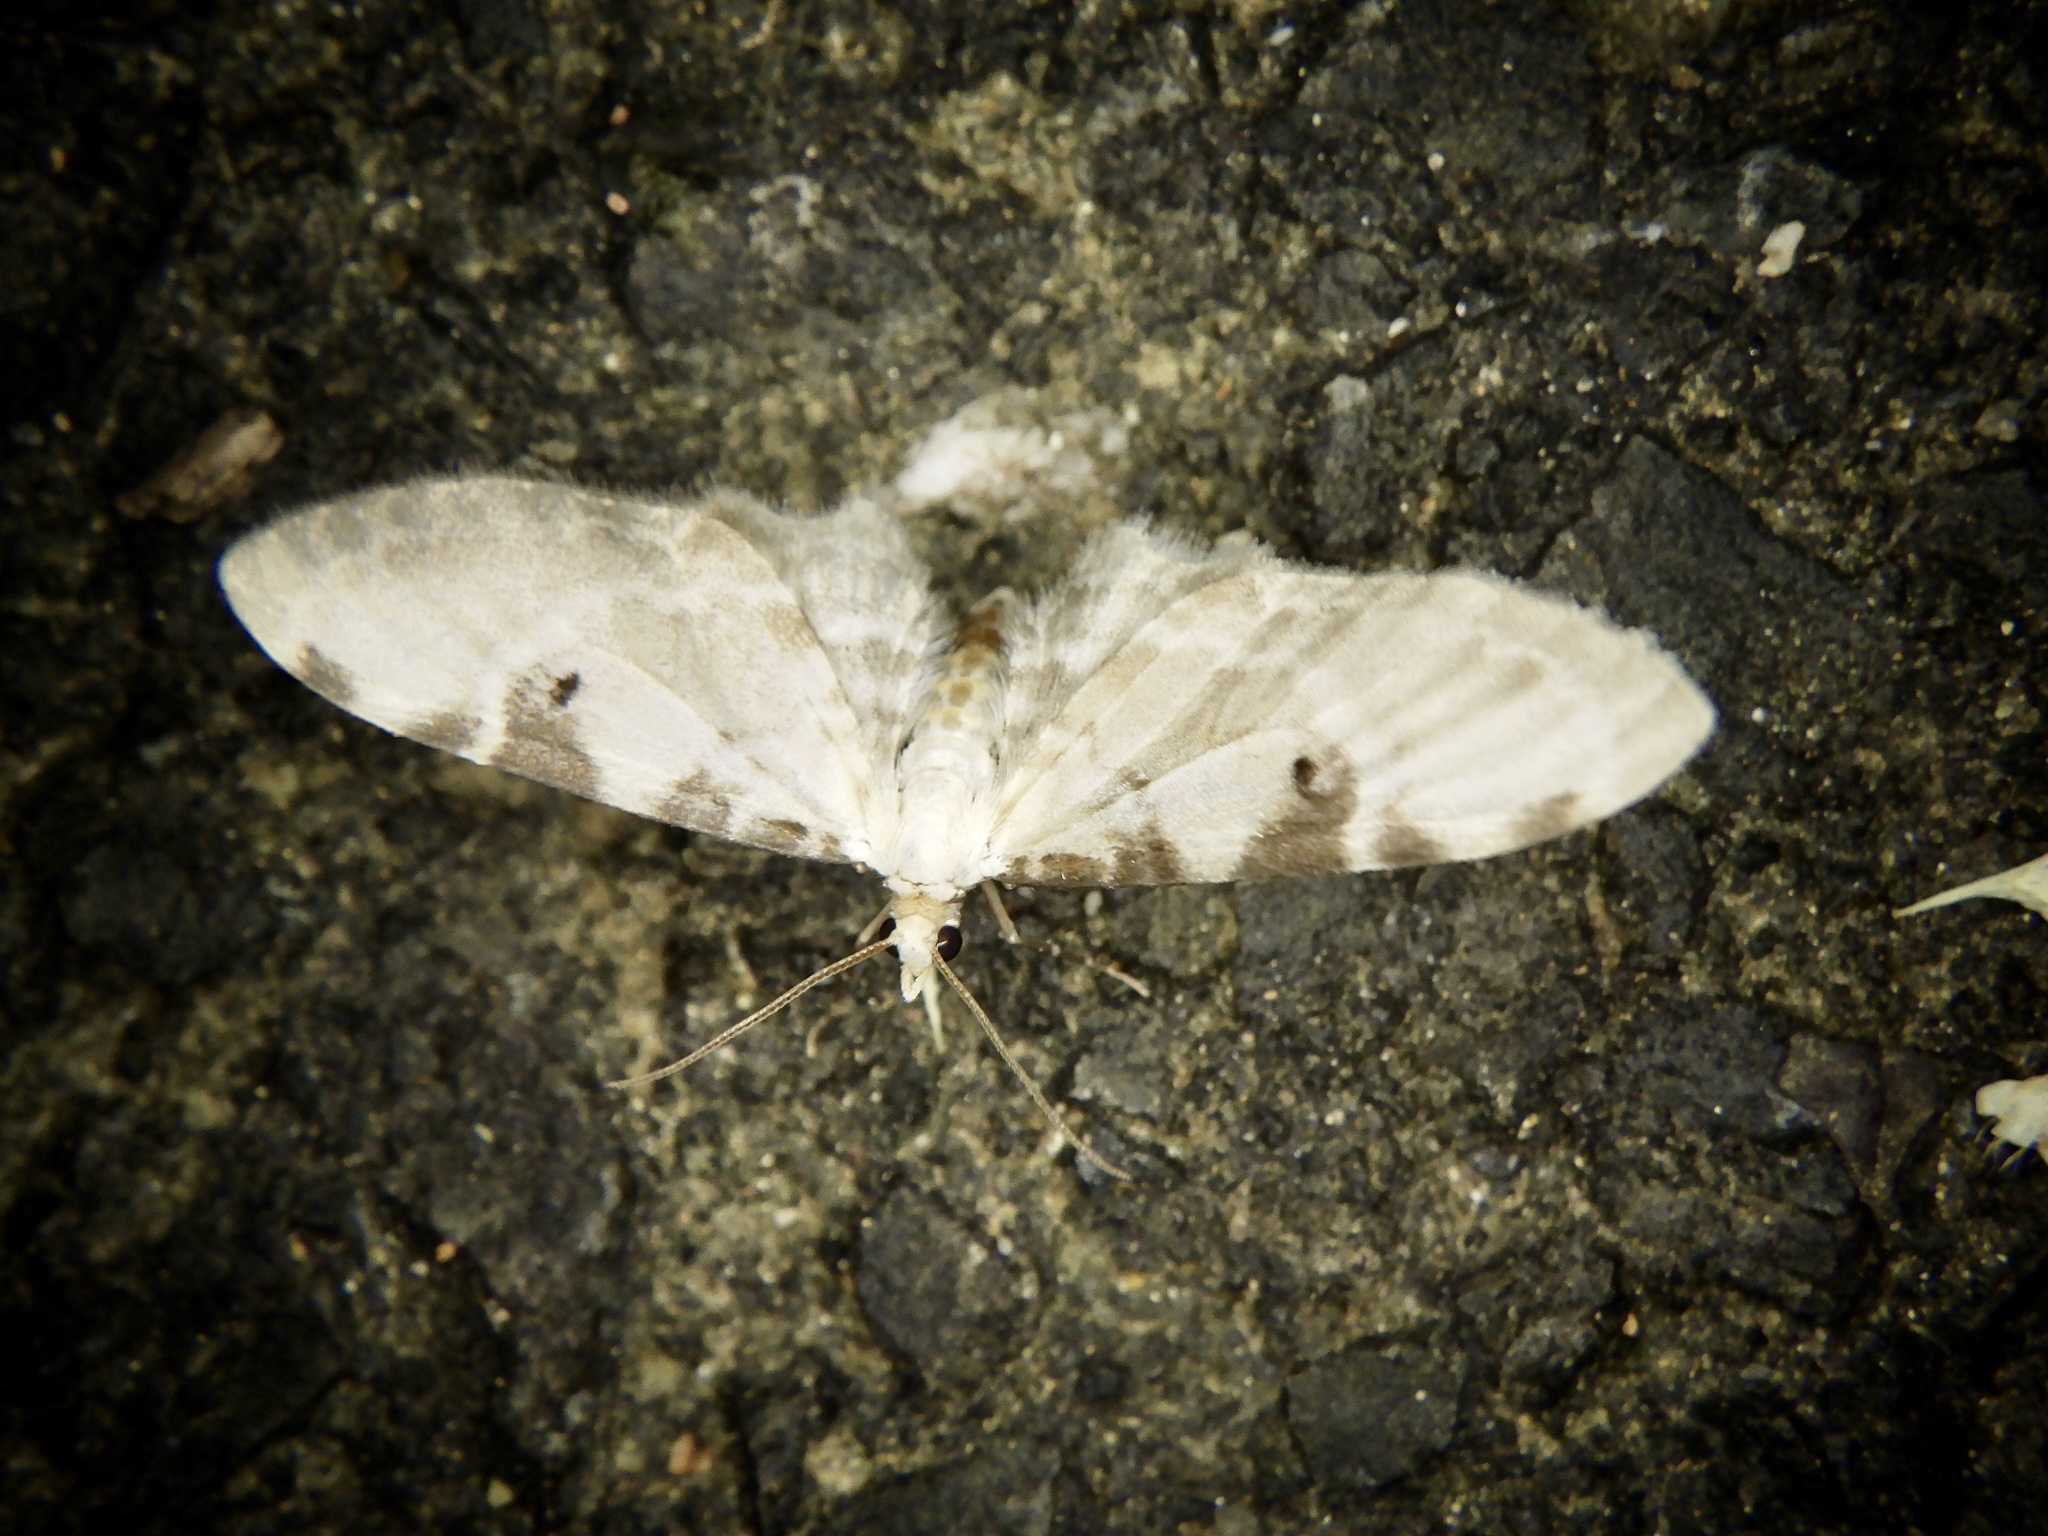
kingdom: Animalia
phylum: Arthropoda
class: Insecta
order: Lepidoptera
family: Geometridae
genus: Brabira
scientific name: Brabira artemidora
